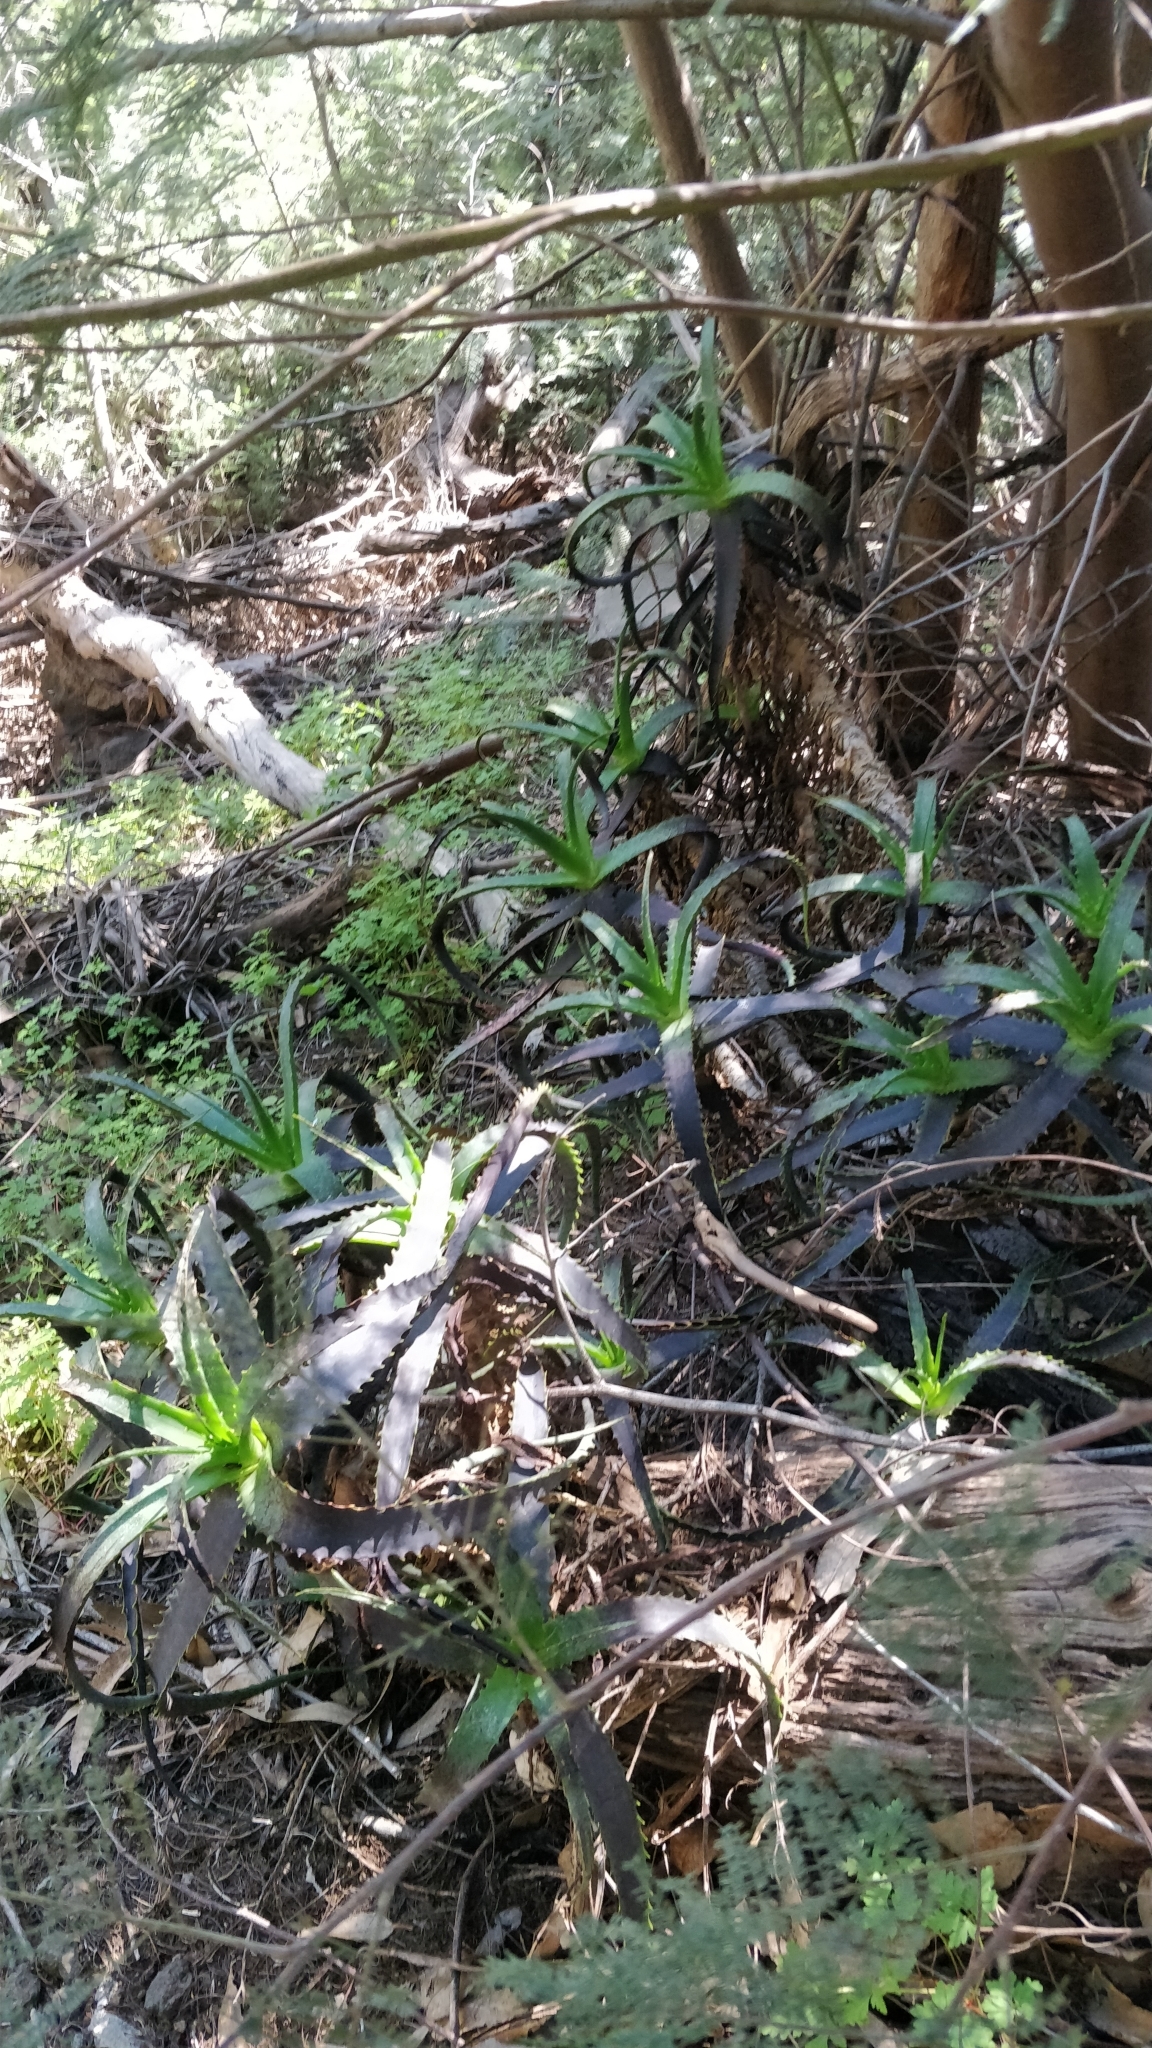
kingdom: Plantae
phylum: Tracheophyta
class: Liliopsida
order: Asparagales
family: Asphodelaceae
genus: Aloe
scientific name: Aloe arborescens
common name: Candelabra aloe
